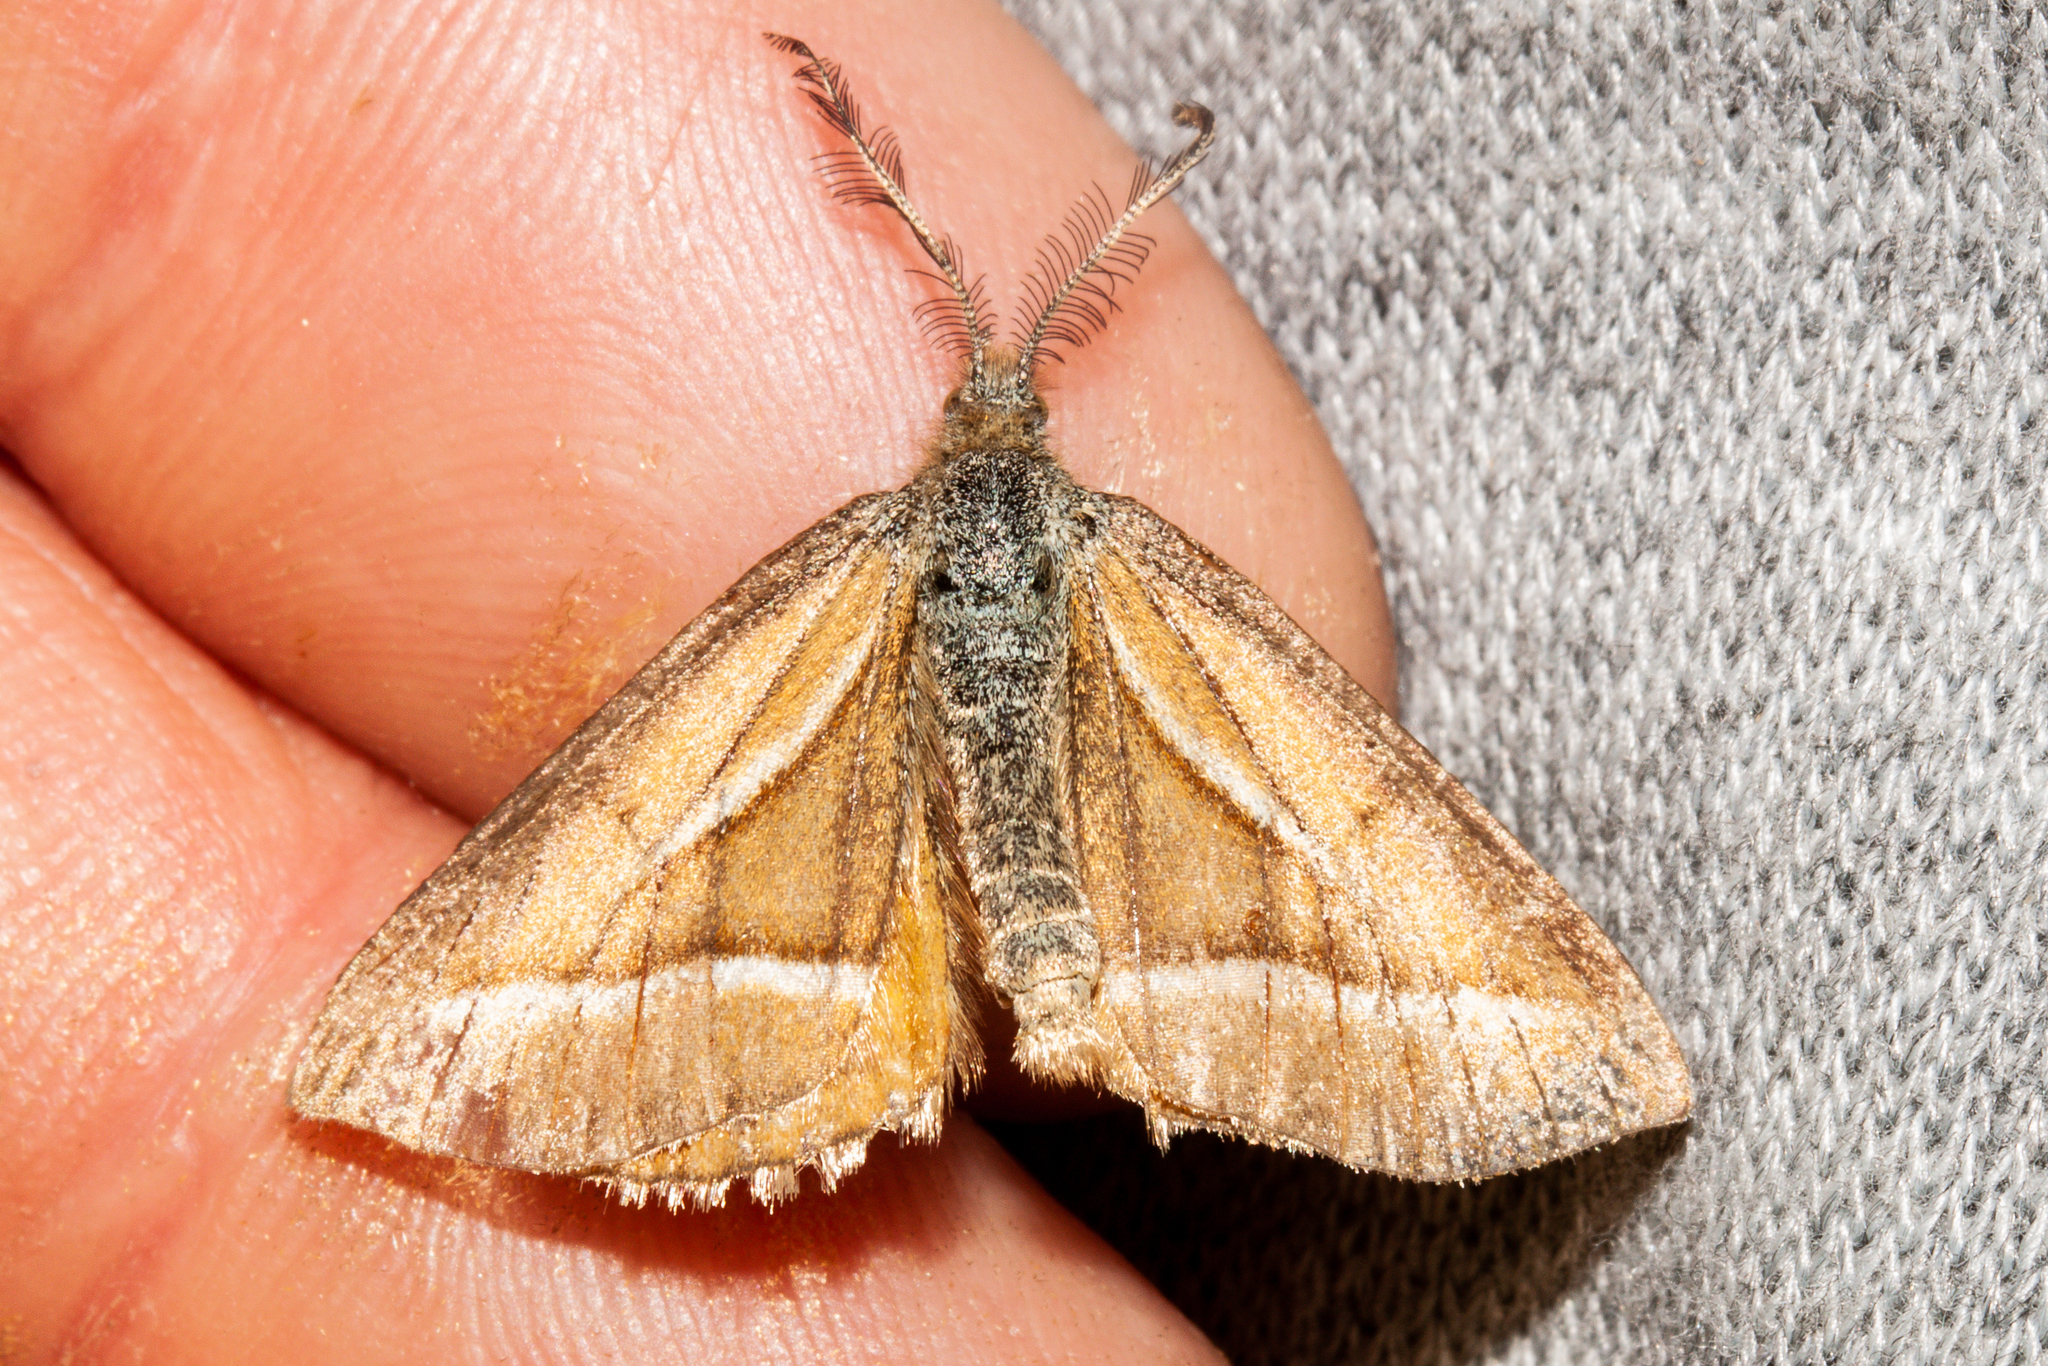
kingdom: Animalia
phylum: Arthropoda
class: Insecta
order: Lepidoptera
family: Geometridae
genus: Aponotoreas
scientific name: Aponotoreas insignis
